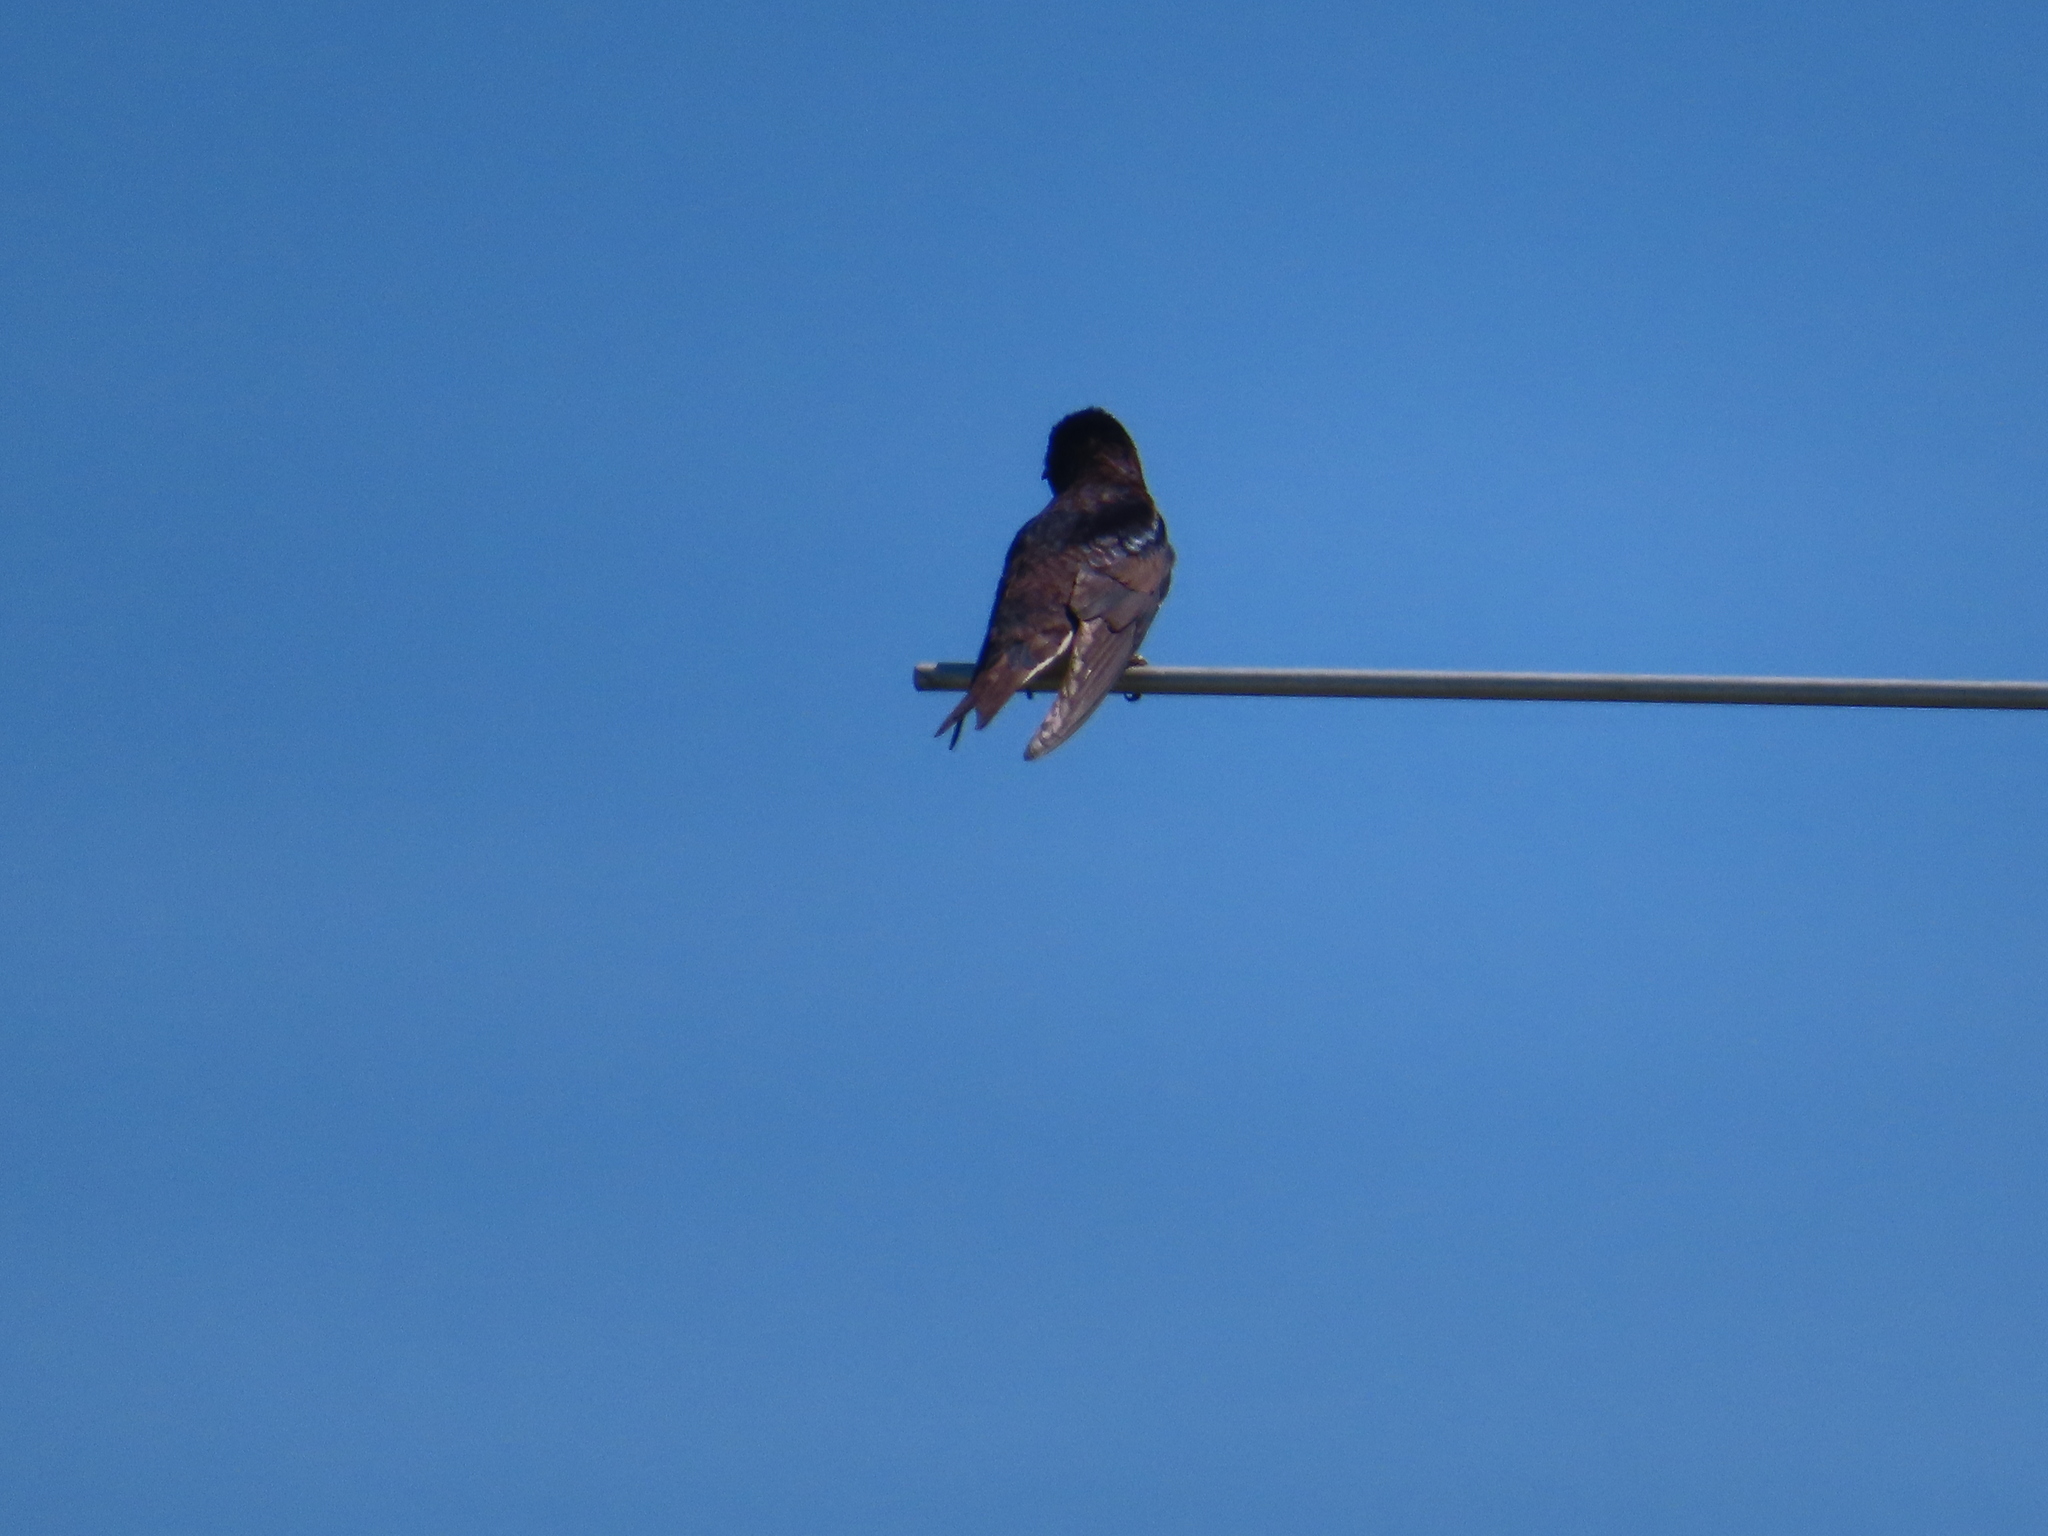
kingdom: Animalia
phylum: Chordata
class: Aves
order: Passeriformes
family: Hirundinidae
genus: Progne
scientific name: Progne subis
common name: Purple martin
